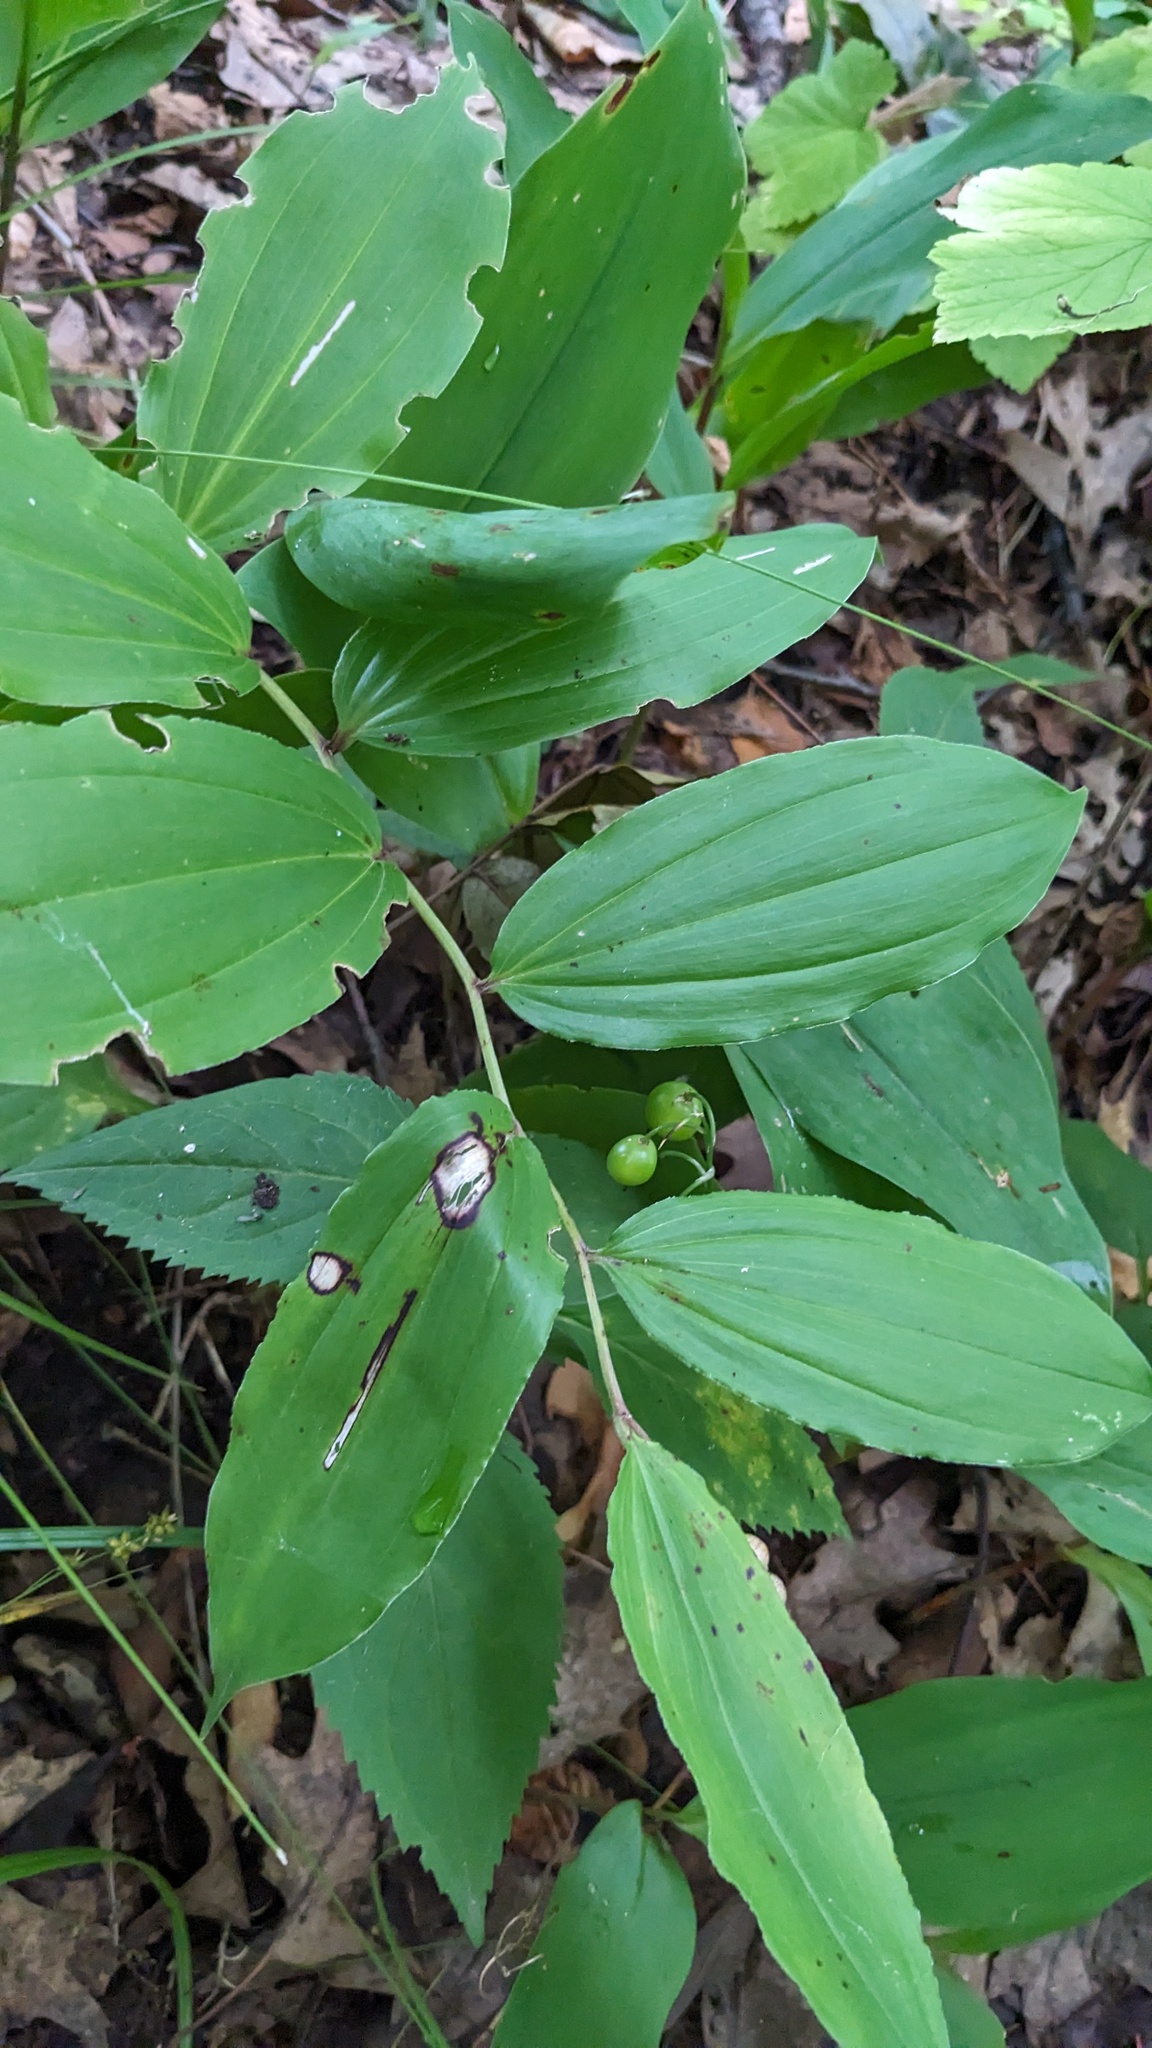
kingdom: Plantae
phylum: Tracheophyta
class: Liliopsida
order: Asparagales
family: Asparagaceae
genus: Maianthemum
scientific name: Maianthemum racemosum
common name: False spikenard
